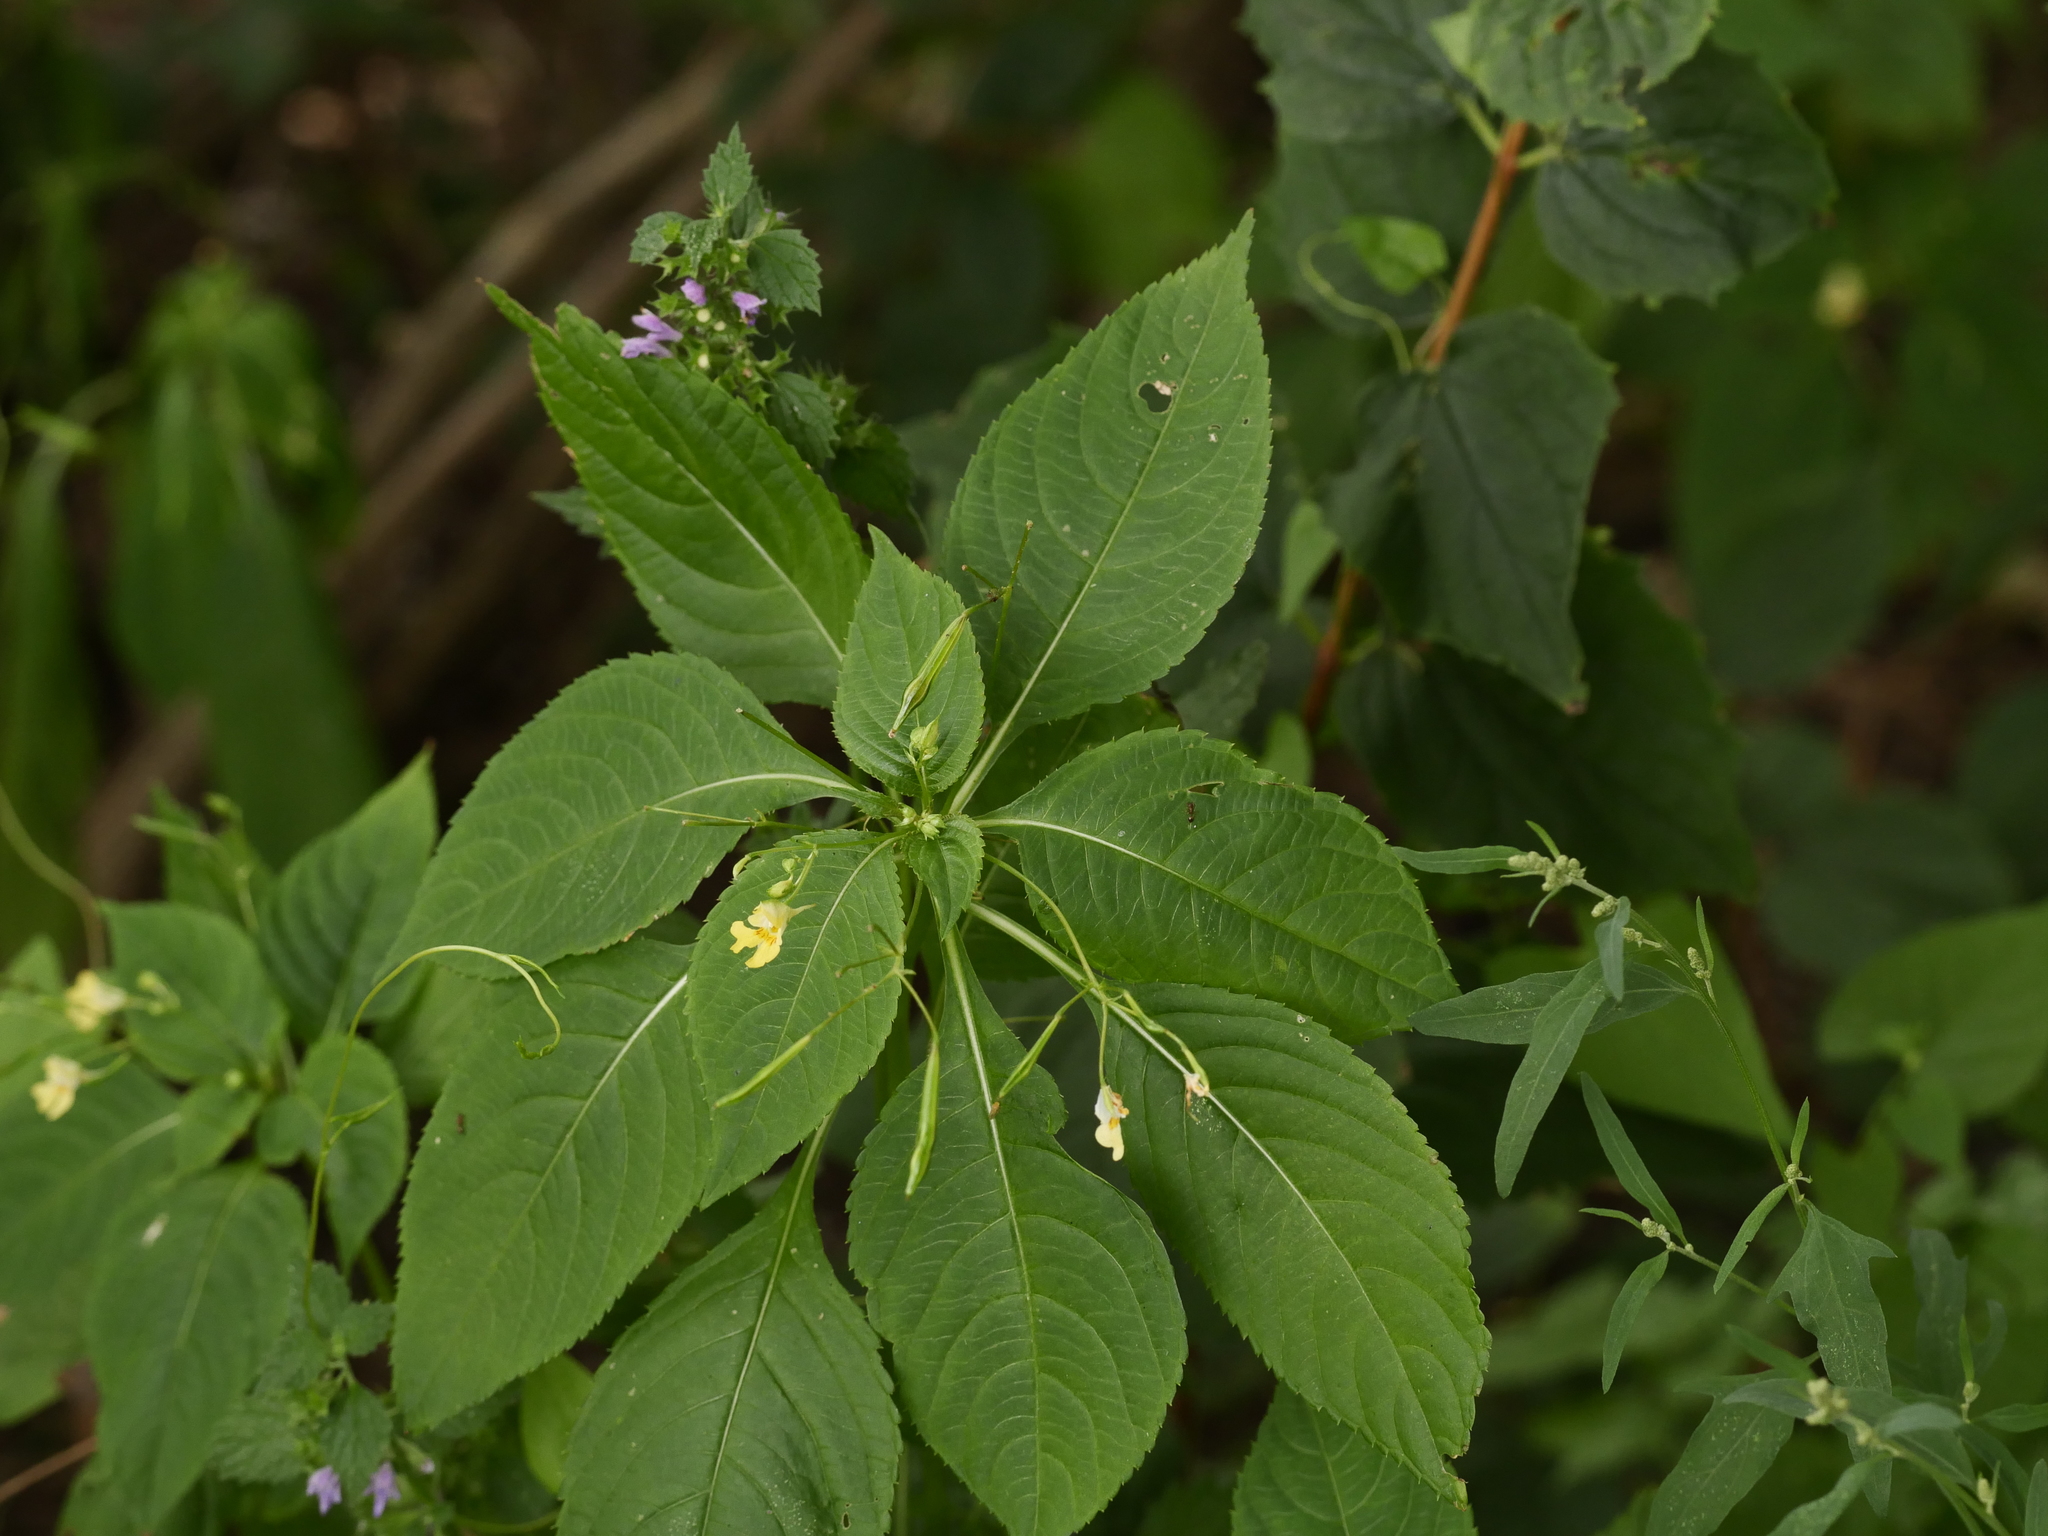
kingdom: Plantae
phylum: Tracheophyta
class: Magnoliopsida
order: Ericales
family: Balsaminaceae
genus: Impatiens
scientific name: Impatiens parviflora
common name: Small balsam
